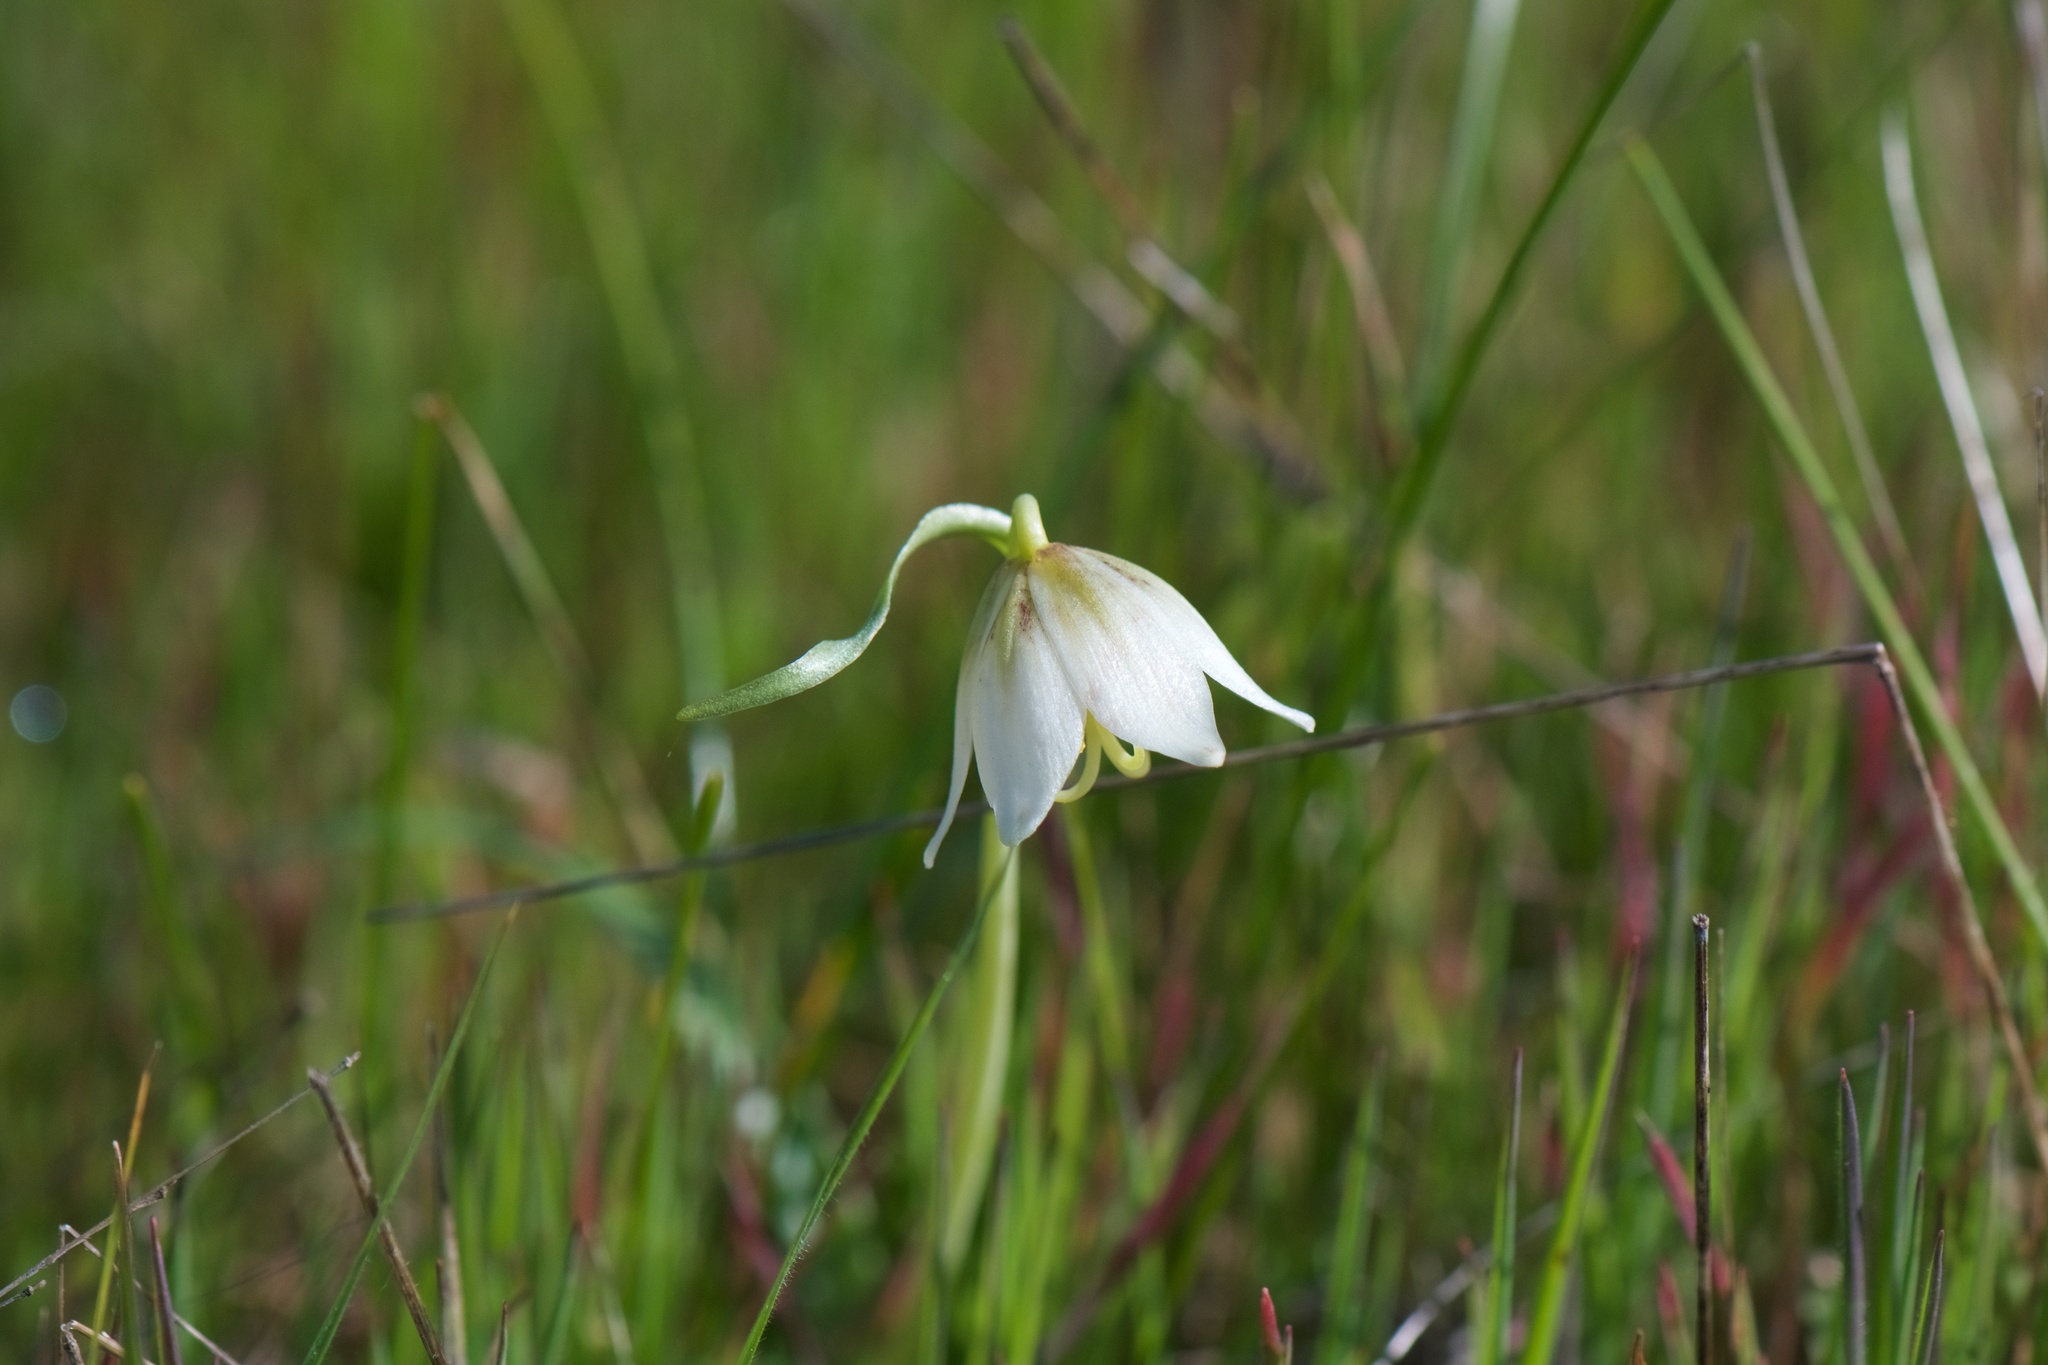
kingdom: Plantae
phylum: Tracheophyta
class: Liliopsida
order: Liliales
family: Liliaceae
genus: Fritillaria
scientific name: Fritillaria liliacea
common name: Fragrant fritillary
